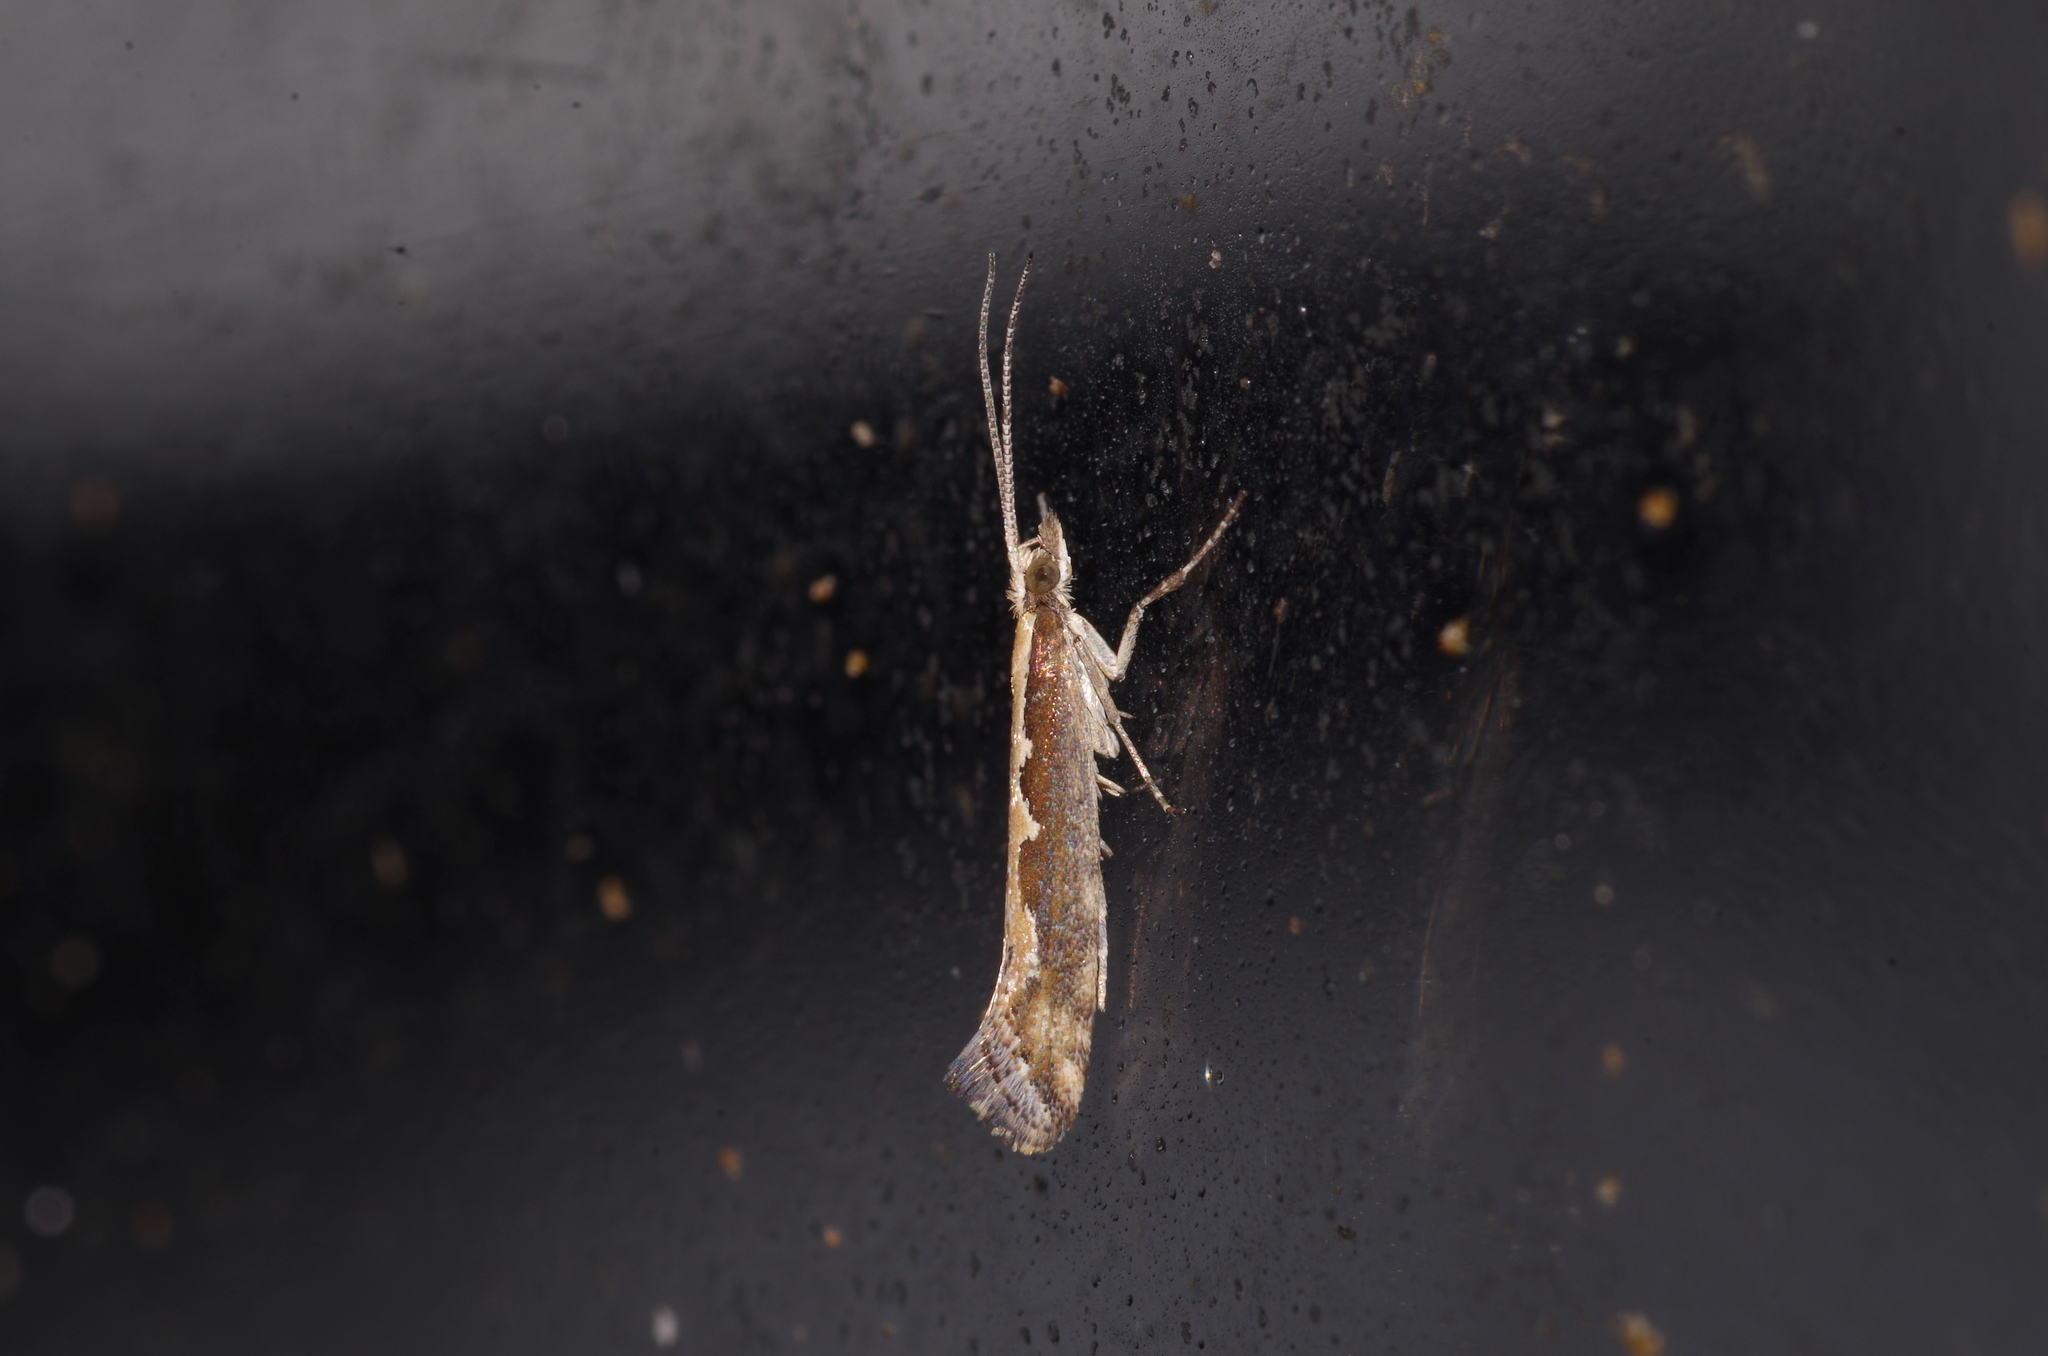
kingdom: Animalia
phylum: Arthropoda
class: Insecta
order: Lepidoptera
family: Plutellidae
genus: Plutella
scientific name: Plutella xylostella
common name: Diamond-back moth
